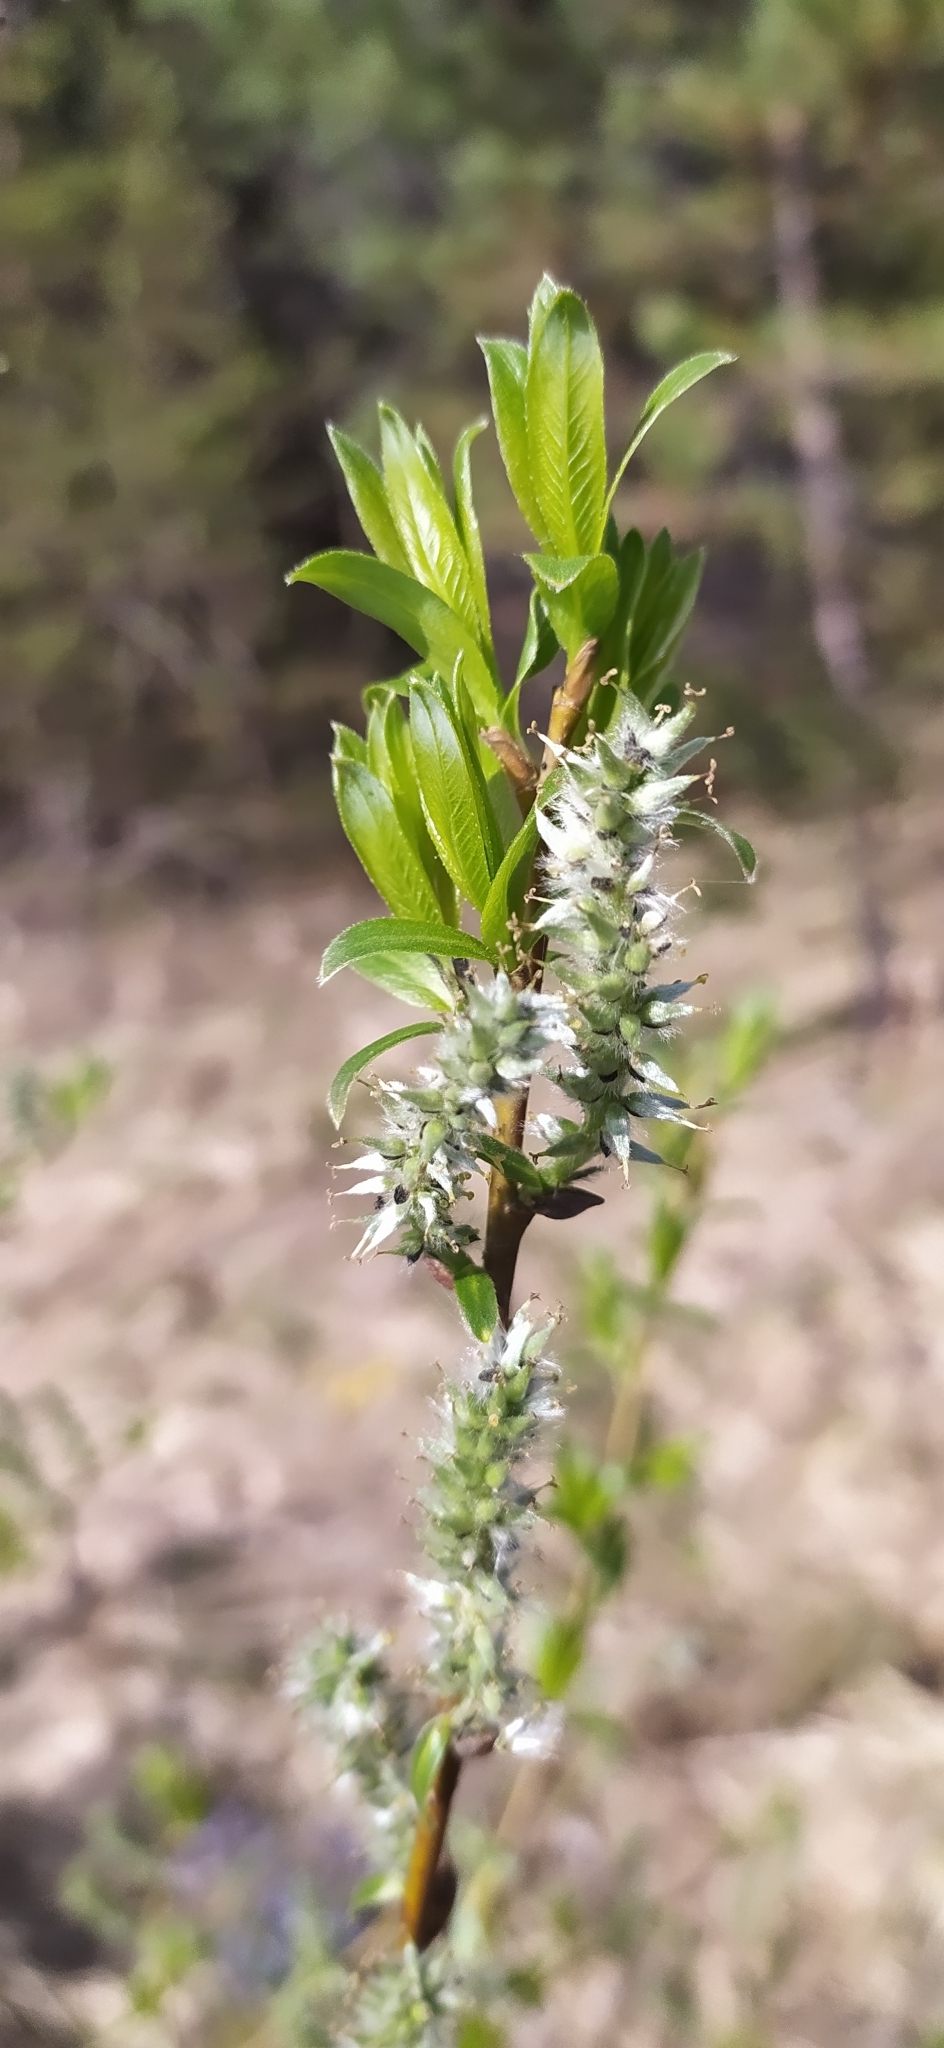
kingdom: Plantae
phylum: Tracheophyta
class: Magnoliopsida
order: Malpighiales
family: Salicaceae
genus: Salix
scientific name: Salix triandra
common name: Almond willow
